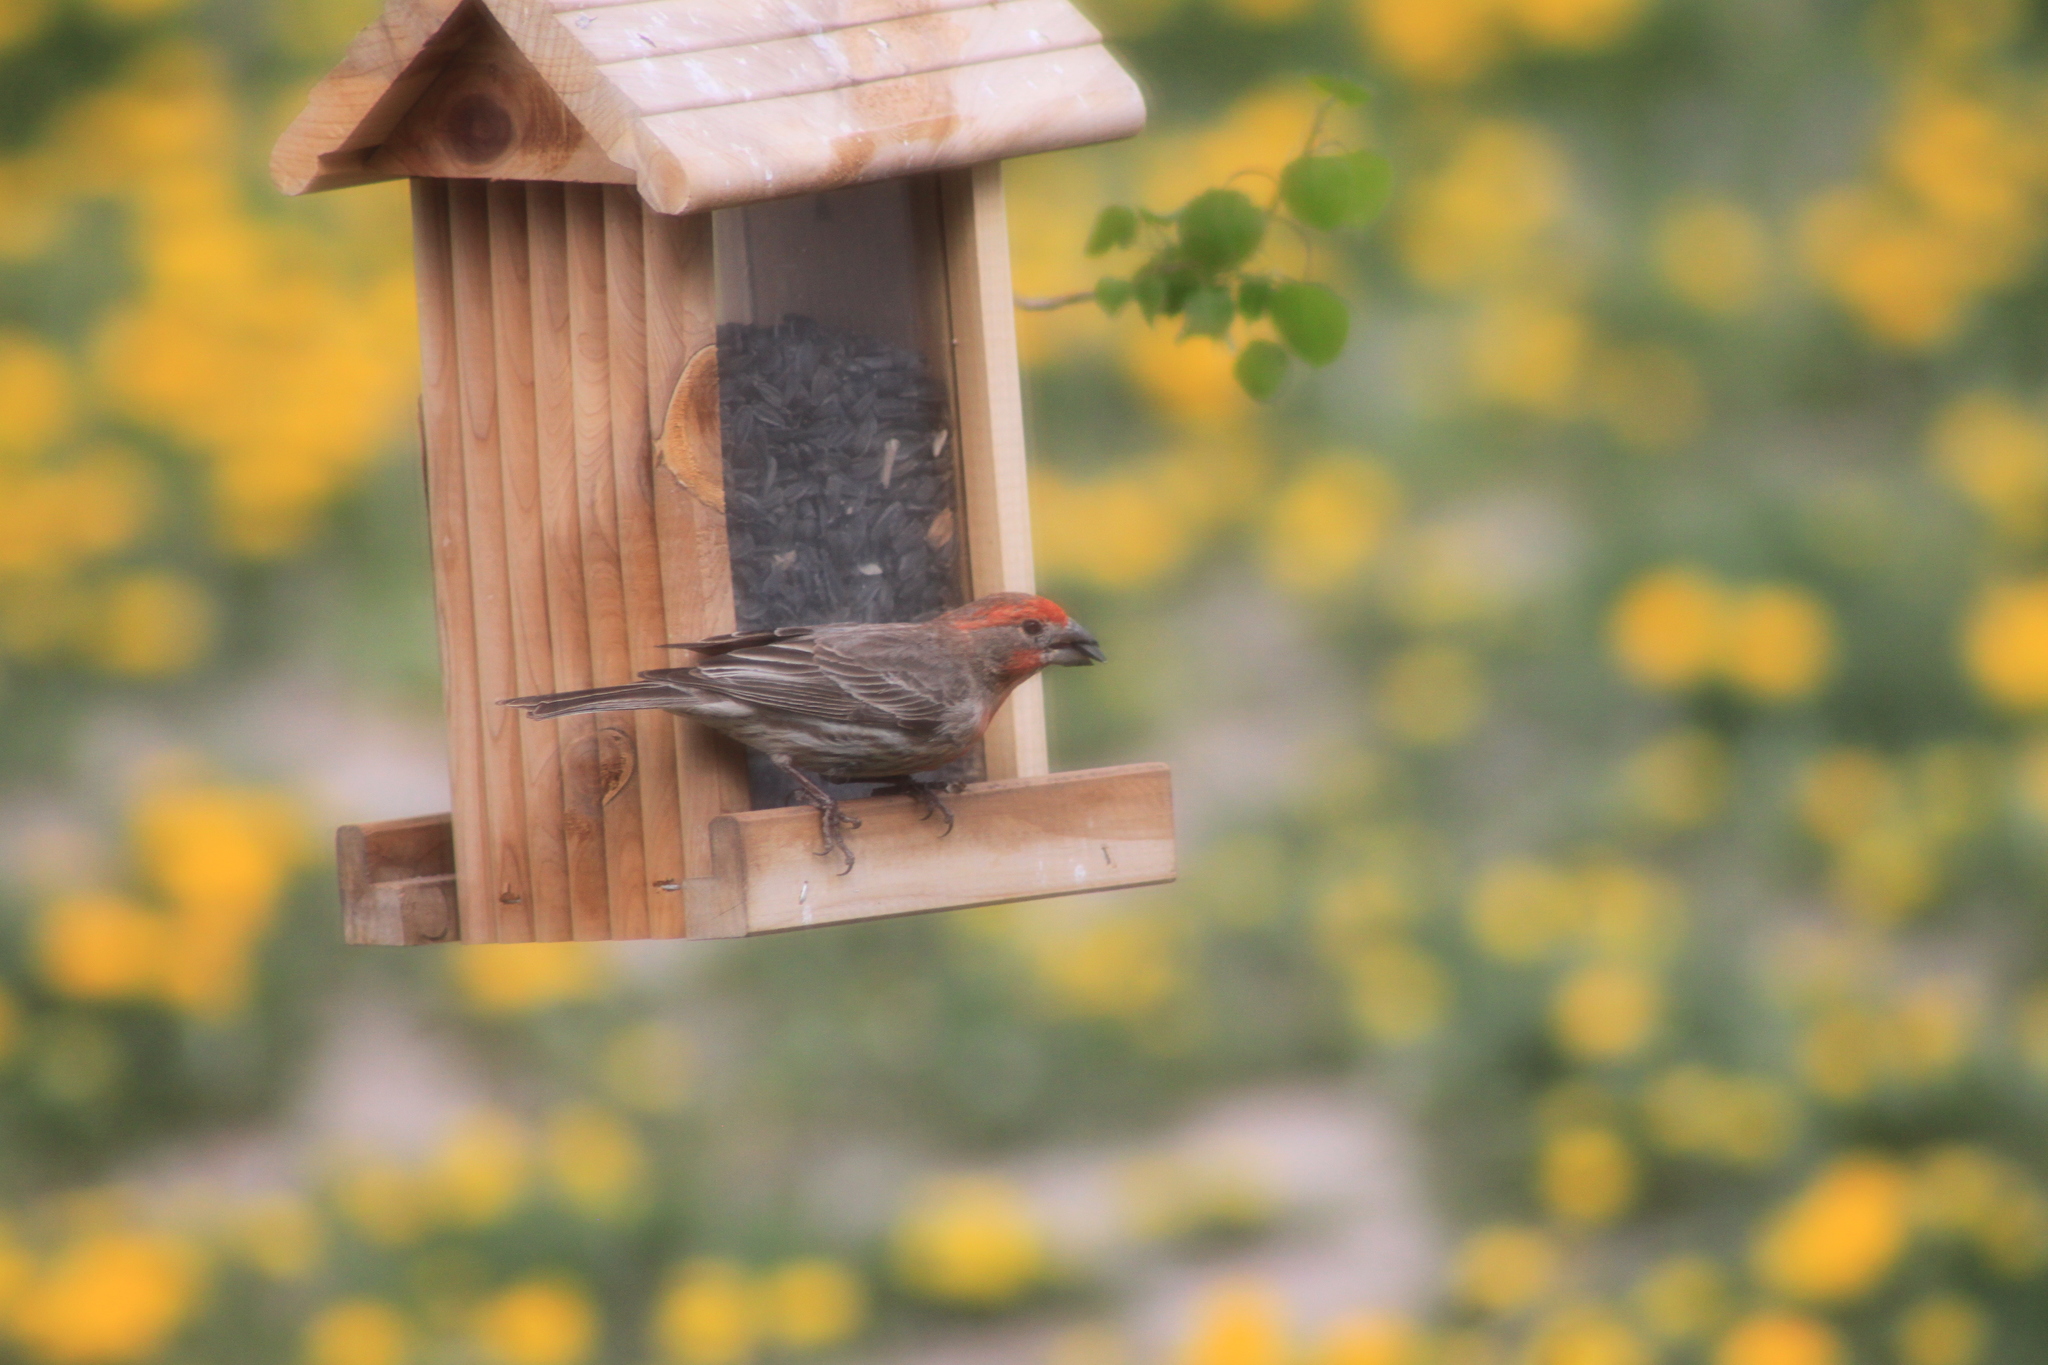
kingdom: Animalia
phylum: Chordata
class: Aves
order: Passeriformes
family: Fringillidae
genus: Haemorhous
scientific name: Haemorhous mexicanus
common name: House finch
